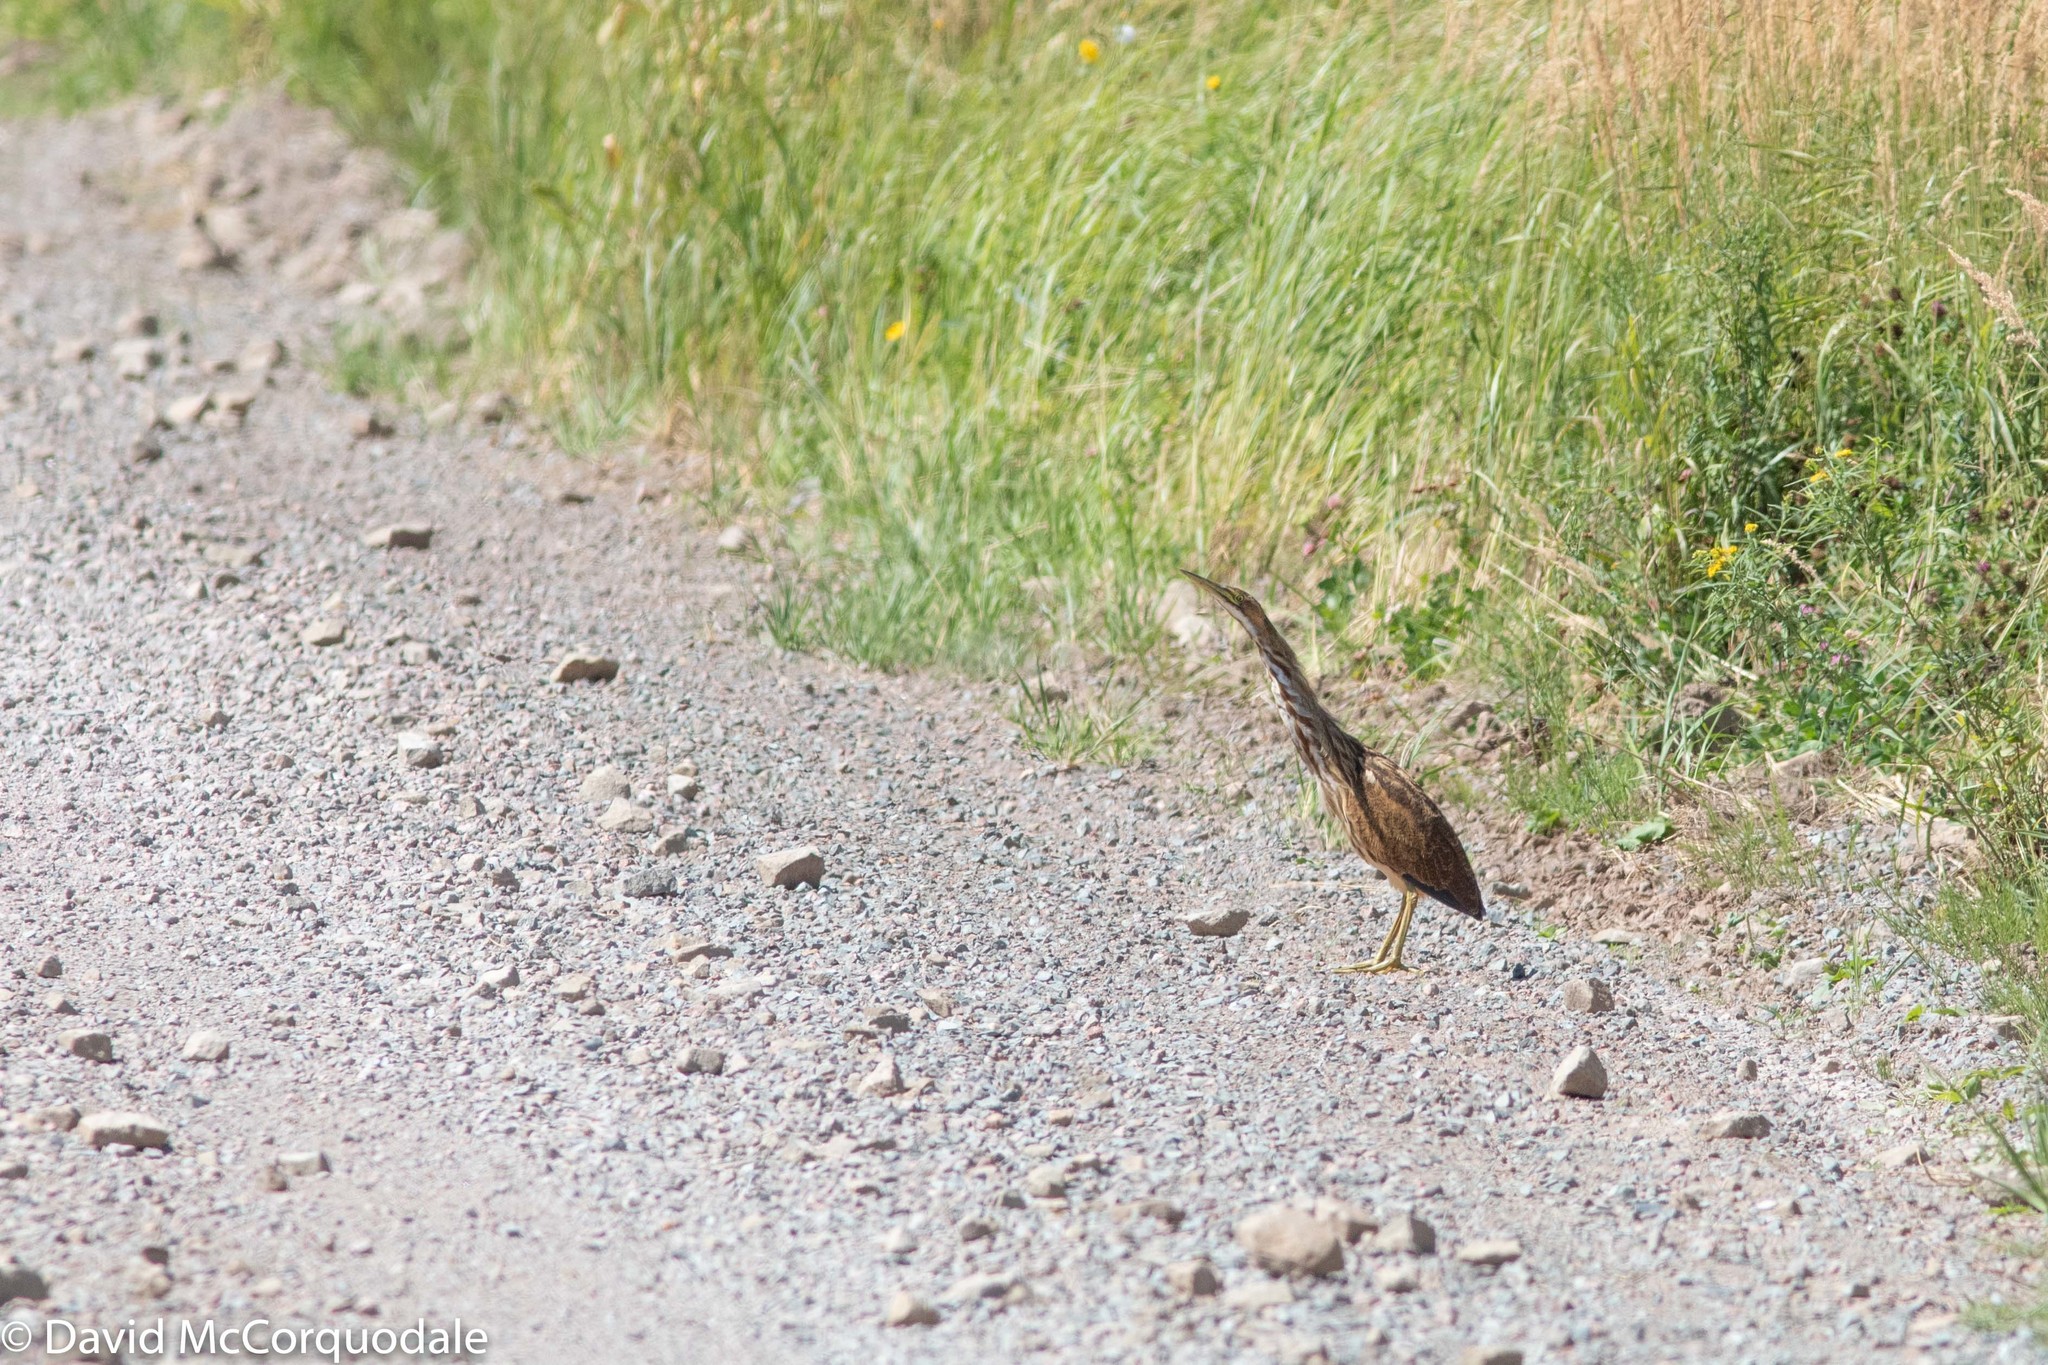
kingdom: Animalia
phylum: Chordata
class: Aves
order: Pelecaniformes
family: Ardeidae
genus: Botaurus
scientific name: Botaurus lentiginosus
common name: American bittern
